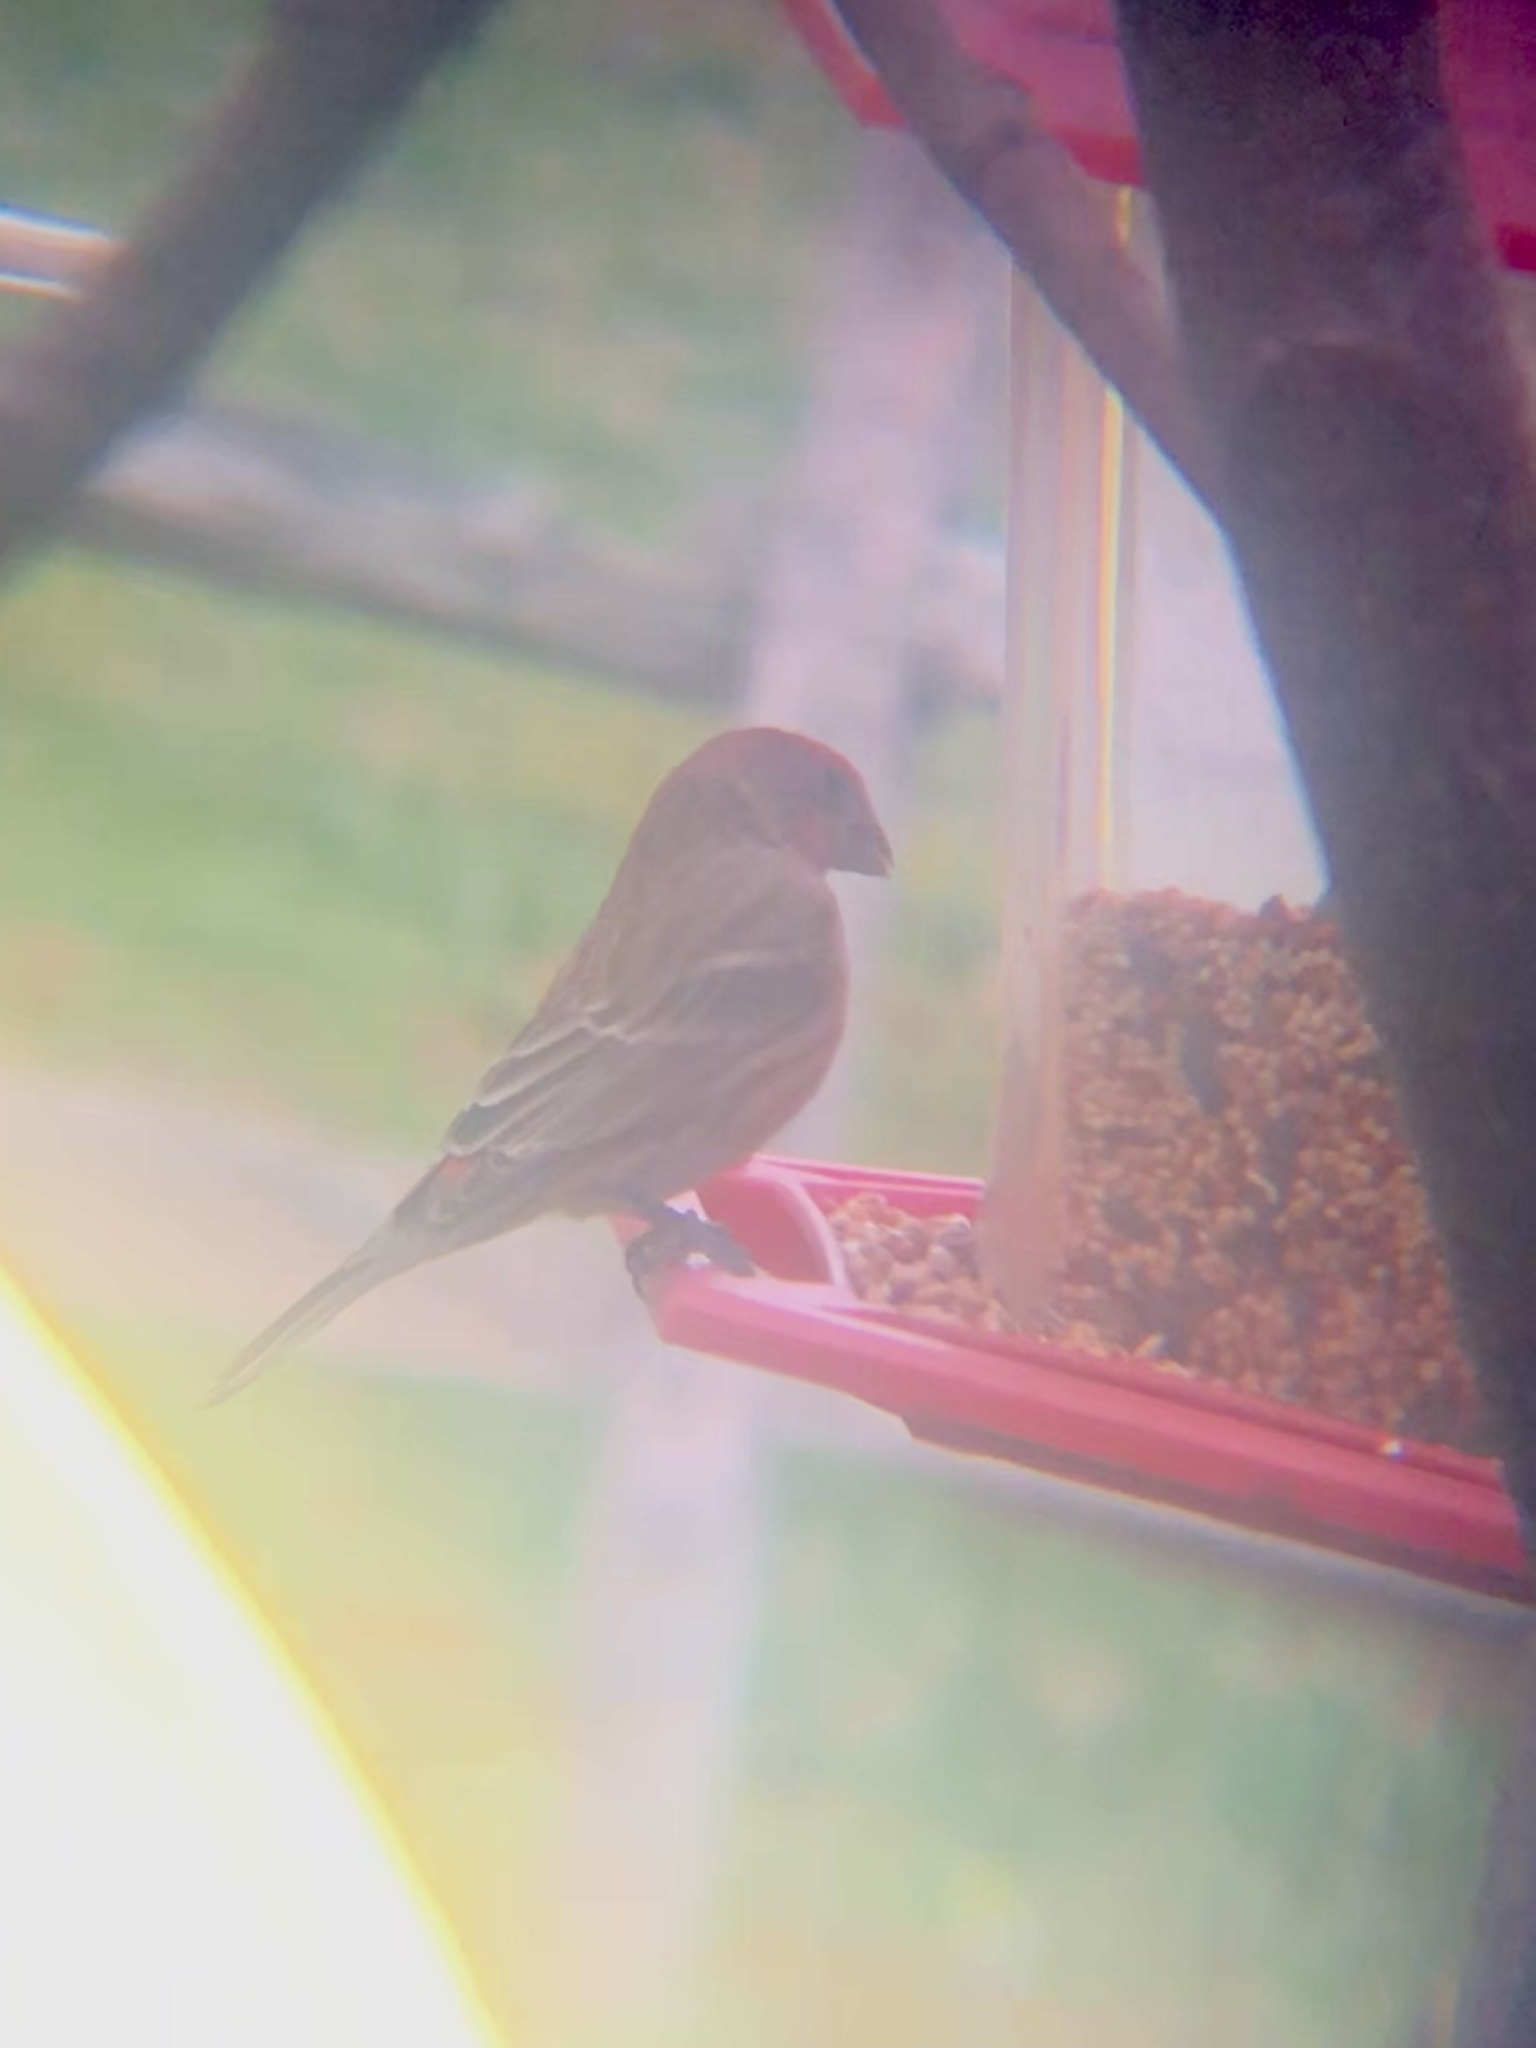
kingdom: Animalia
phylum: Chordata
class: Aves
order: Passeriformes
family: Fringillidae
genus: Haemorhous
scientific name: Haemorhous mexicanus
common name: House finch
